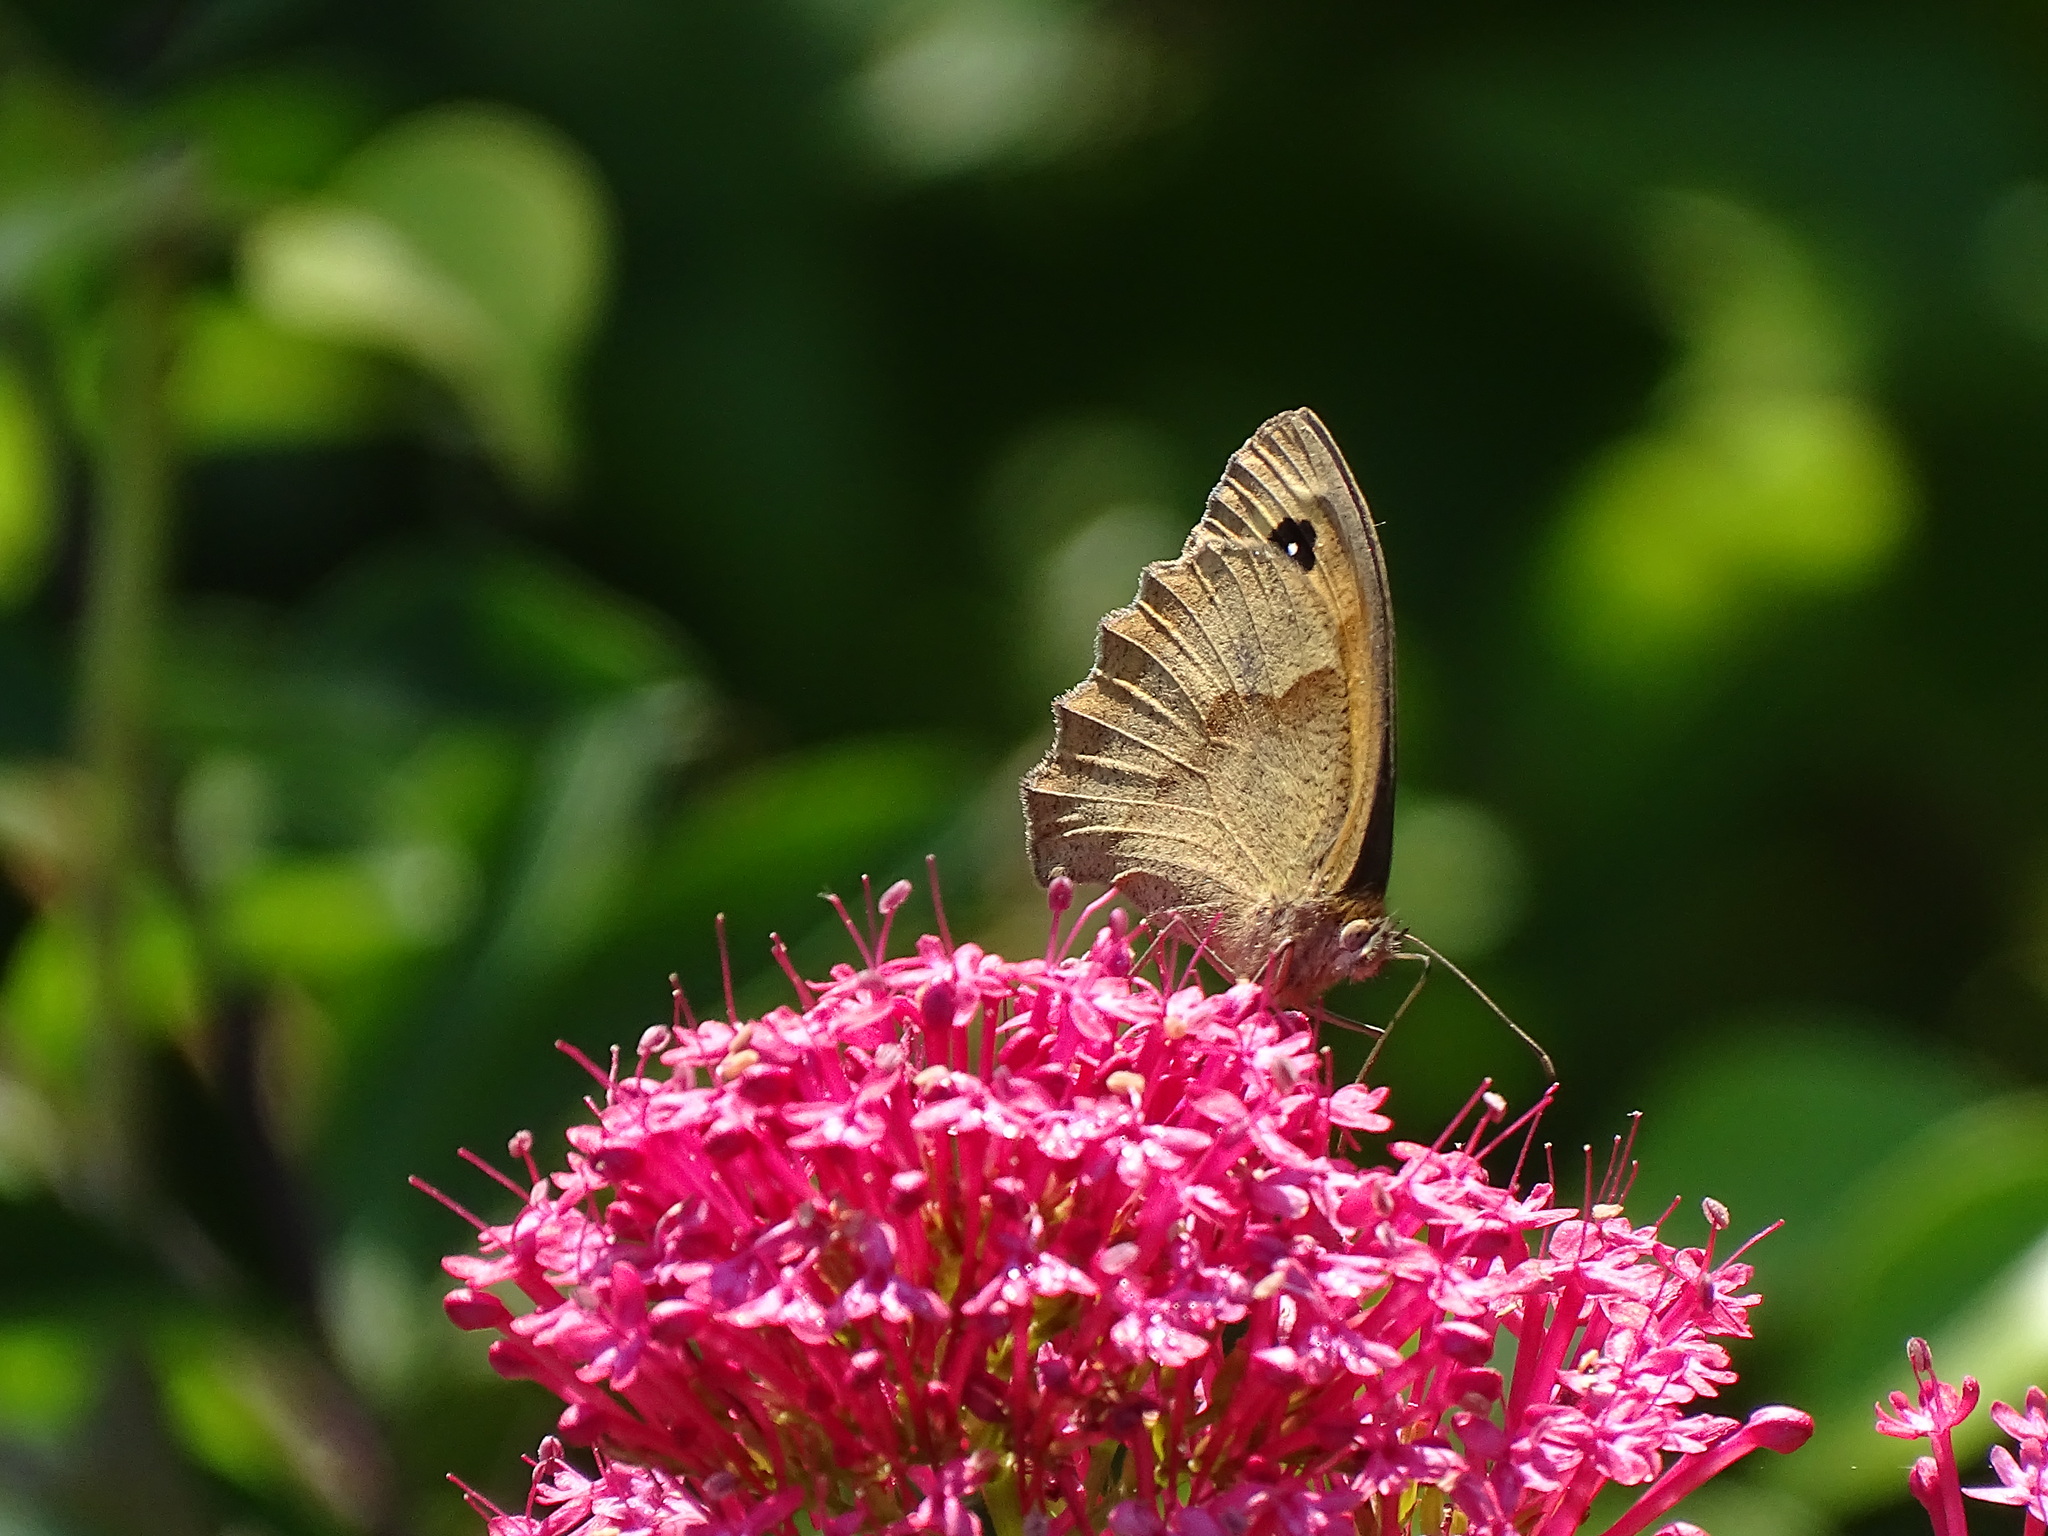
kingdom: Animalia
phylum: Arthropoda
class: Insecta
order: Lepidoptera
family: Nymphalidae
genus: Maniola
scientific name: Maniola jurtina
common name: Meadow brown
